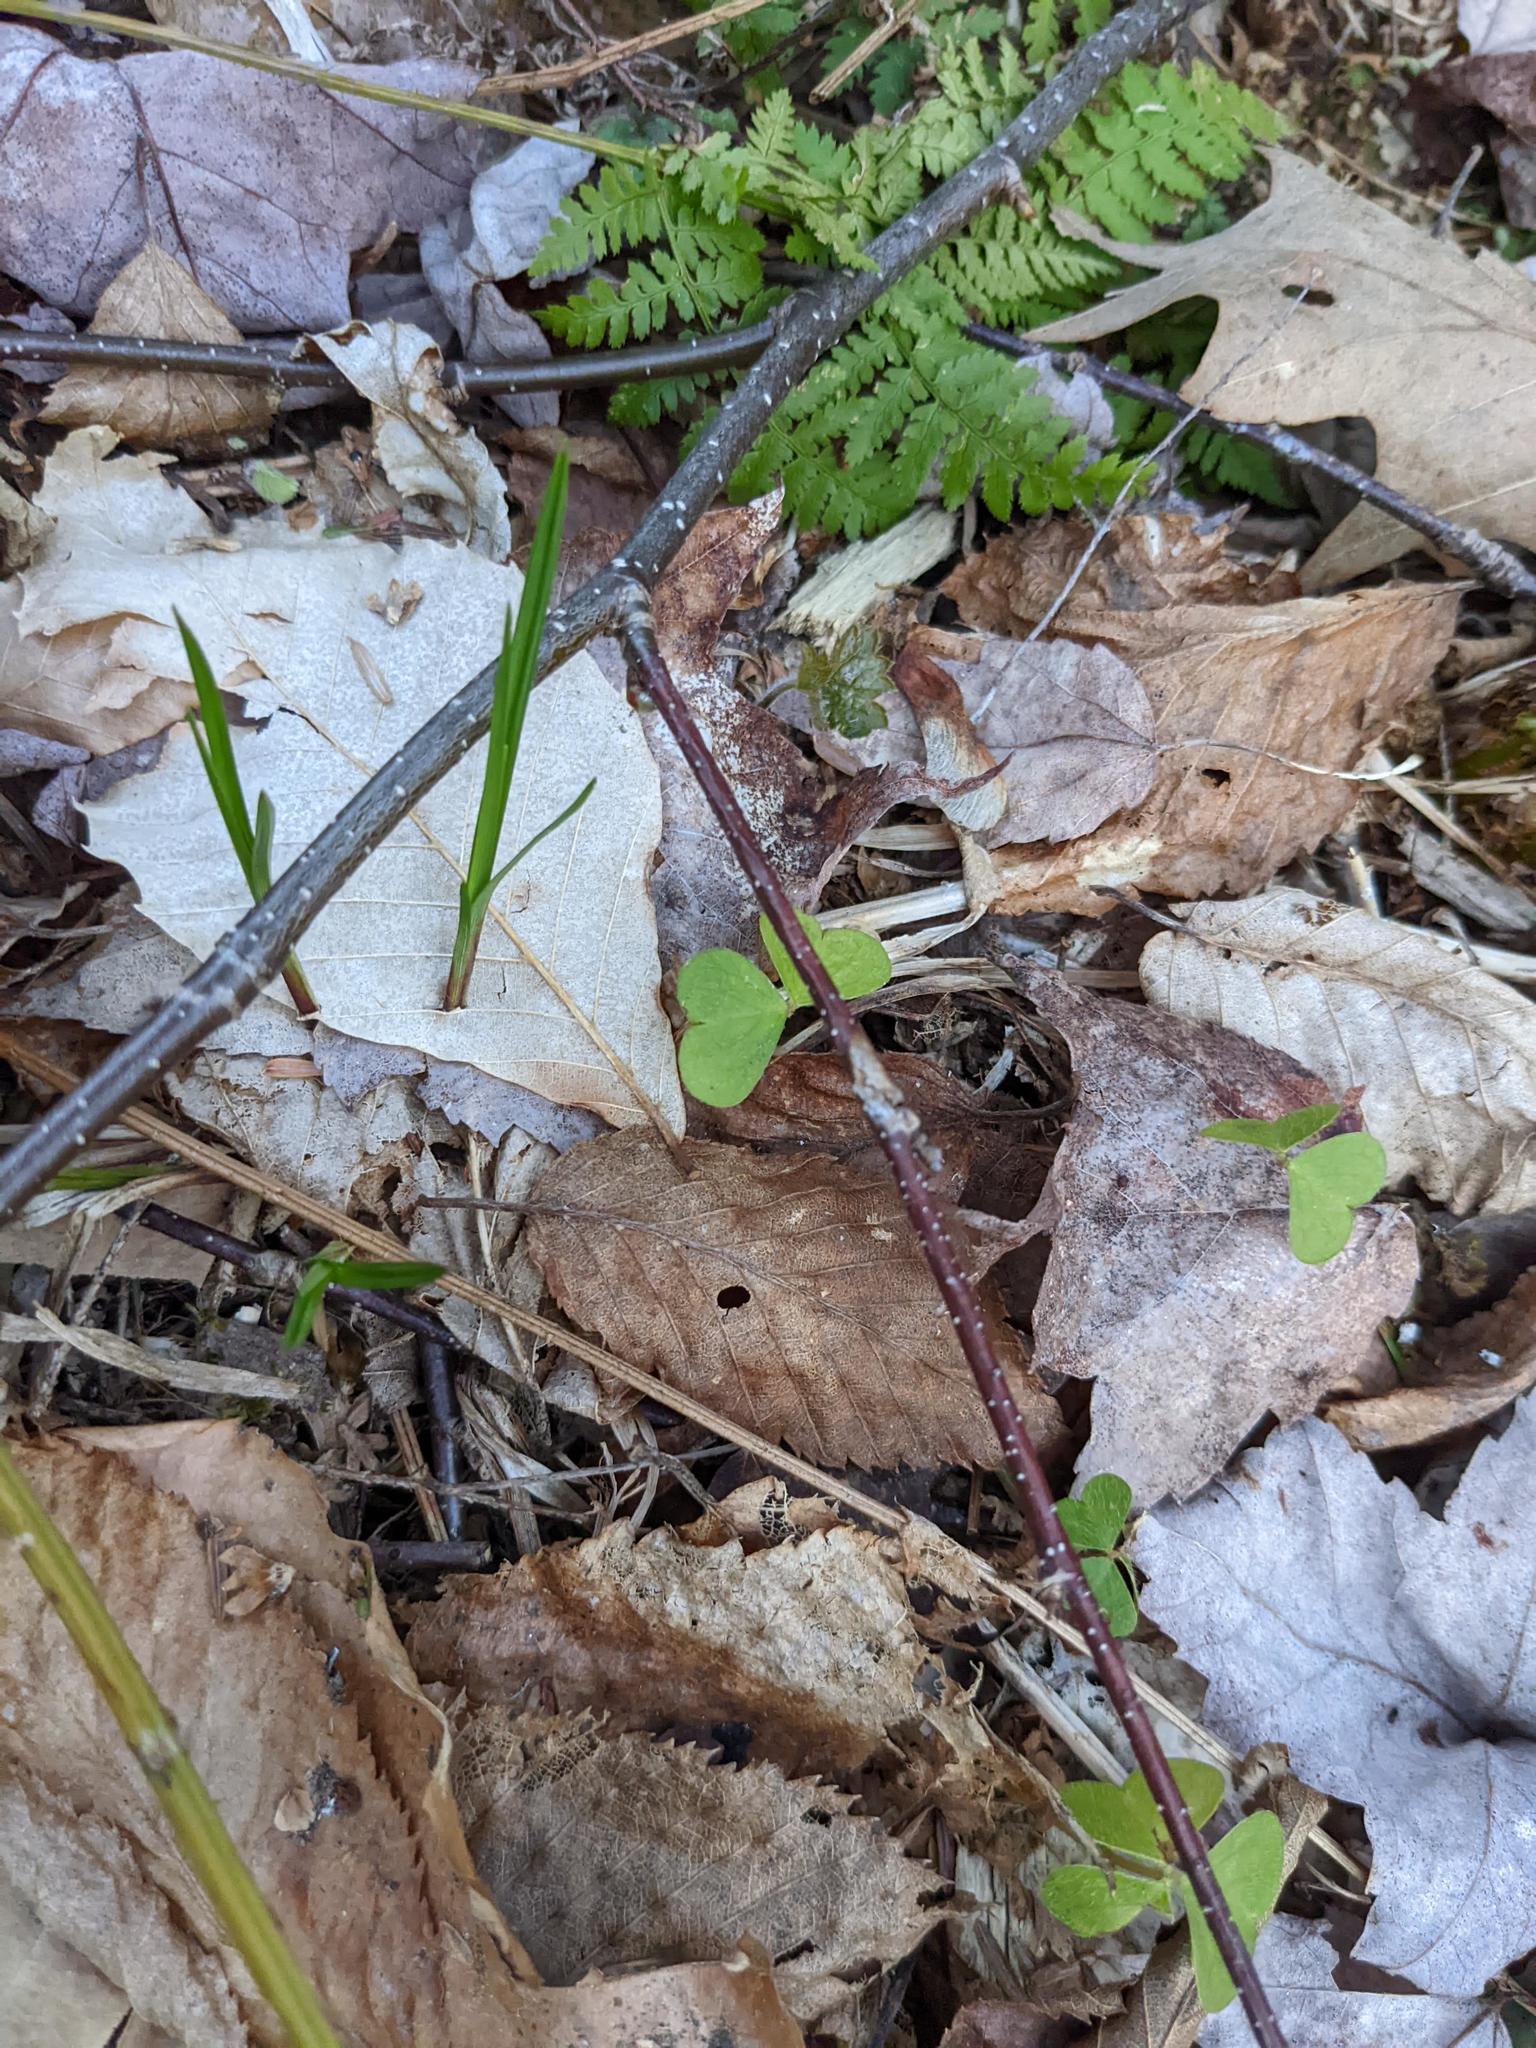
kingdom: Plantae
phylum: Tracheophyta
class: Magnoliopsida
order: Oxalidales
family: Oxalidaceae
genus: Oxalis
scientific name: Oxalis montana
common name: American wood-sorrel
